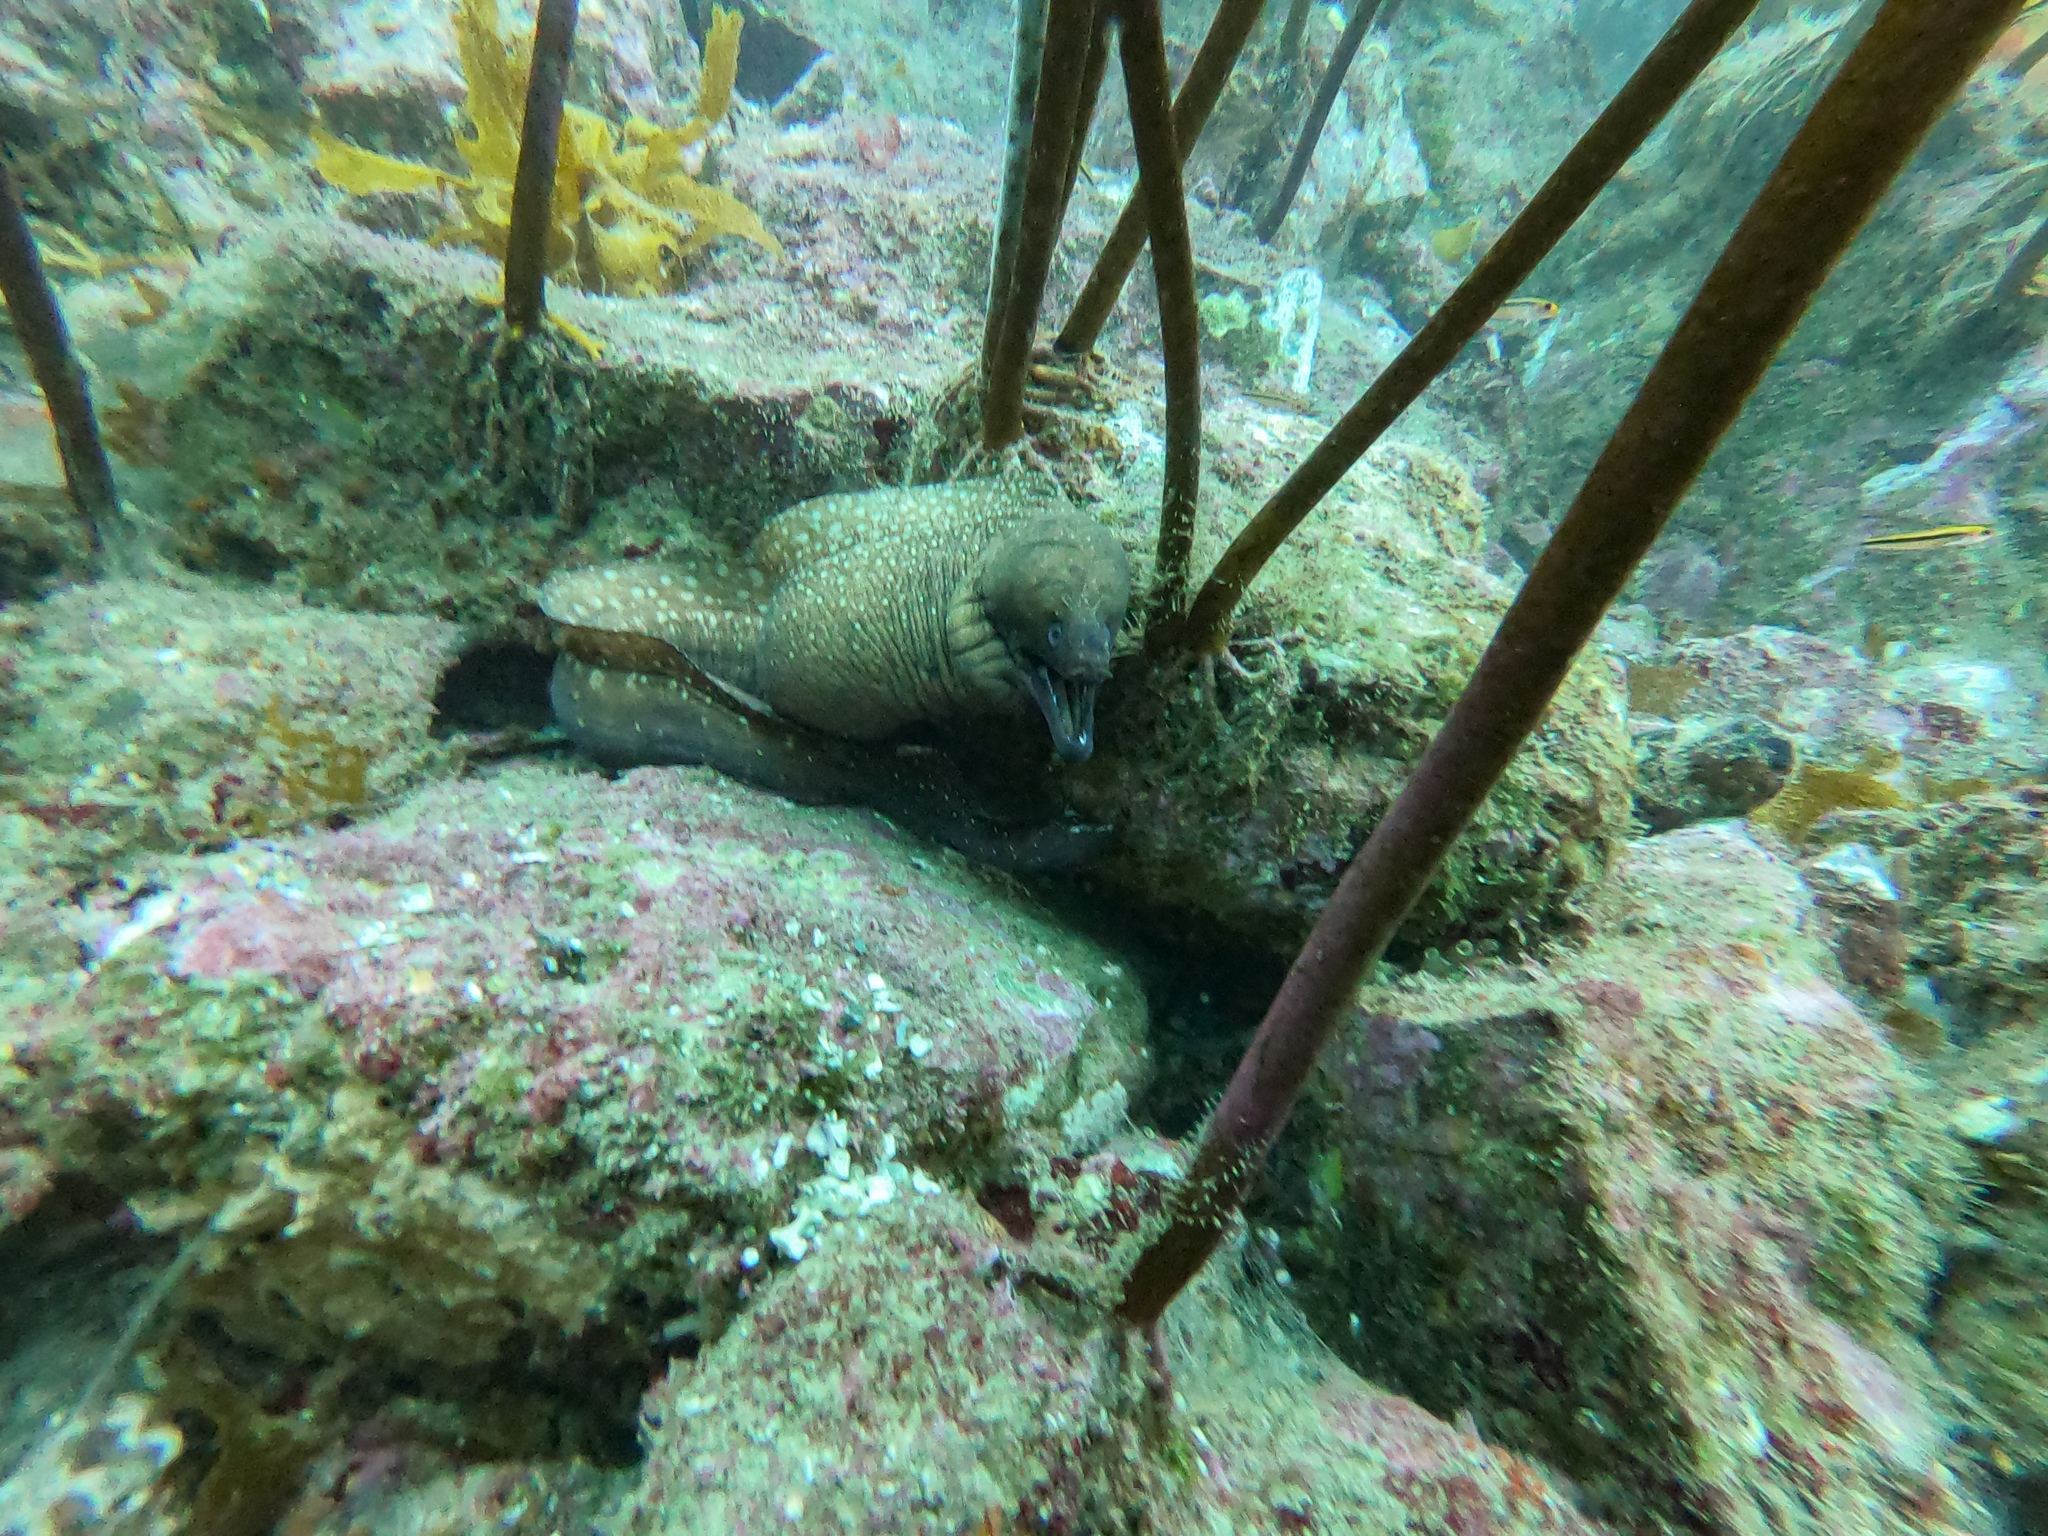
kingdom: Animalia
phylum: Chordata
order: Anguilliformes
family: Muraenidae
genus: Gymnothorax
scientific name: Gymnothorax prionodon
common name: Australian mottled moray
